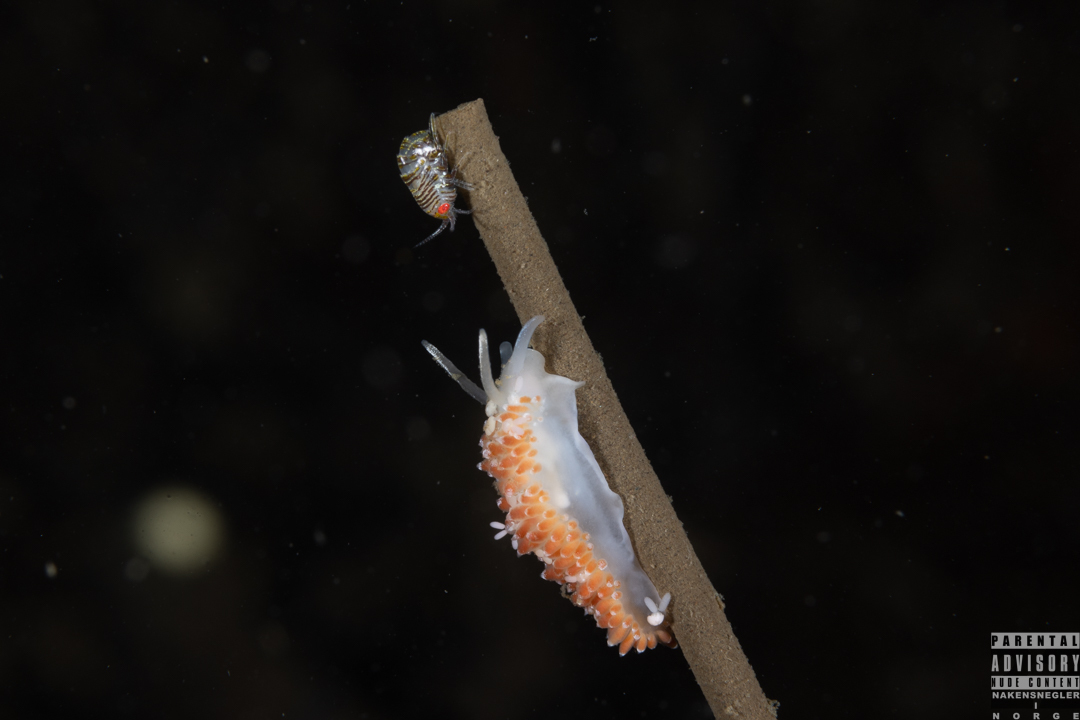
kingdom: Animalia
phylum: Mollusca
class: Gastropoda
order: Nudibranchia
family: Coryphellidae
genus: Coryphella
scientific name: Coryphella verrucosa
